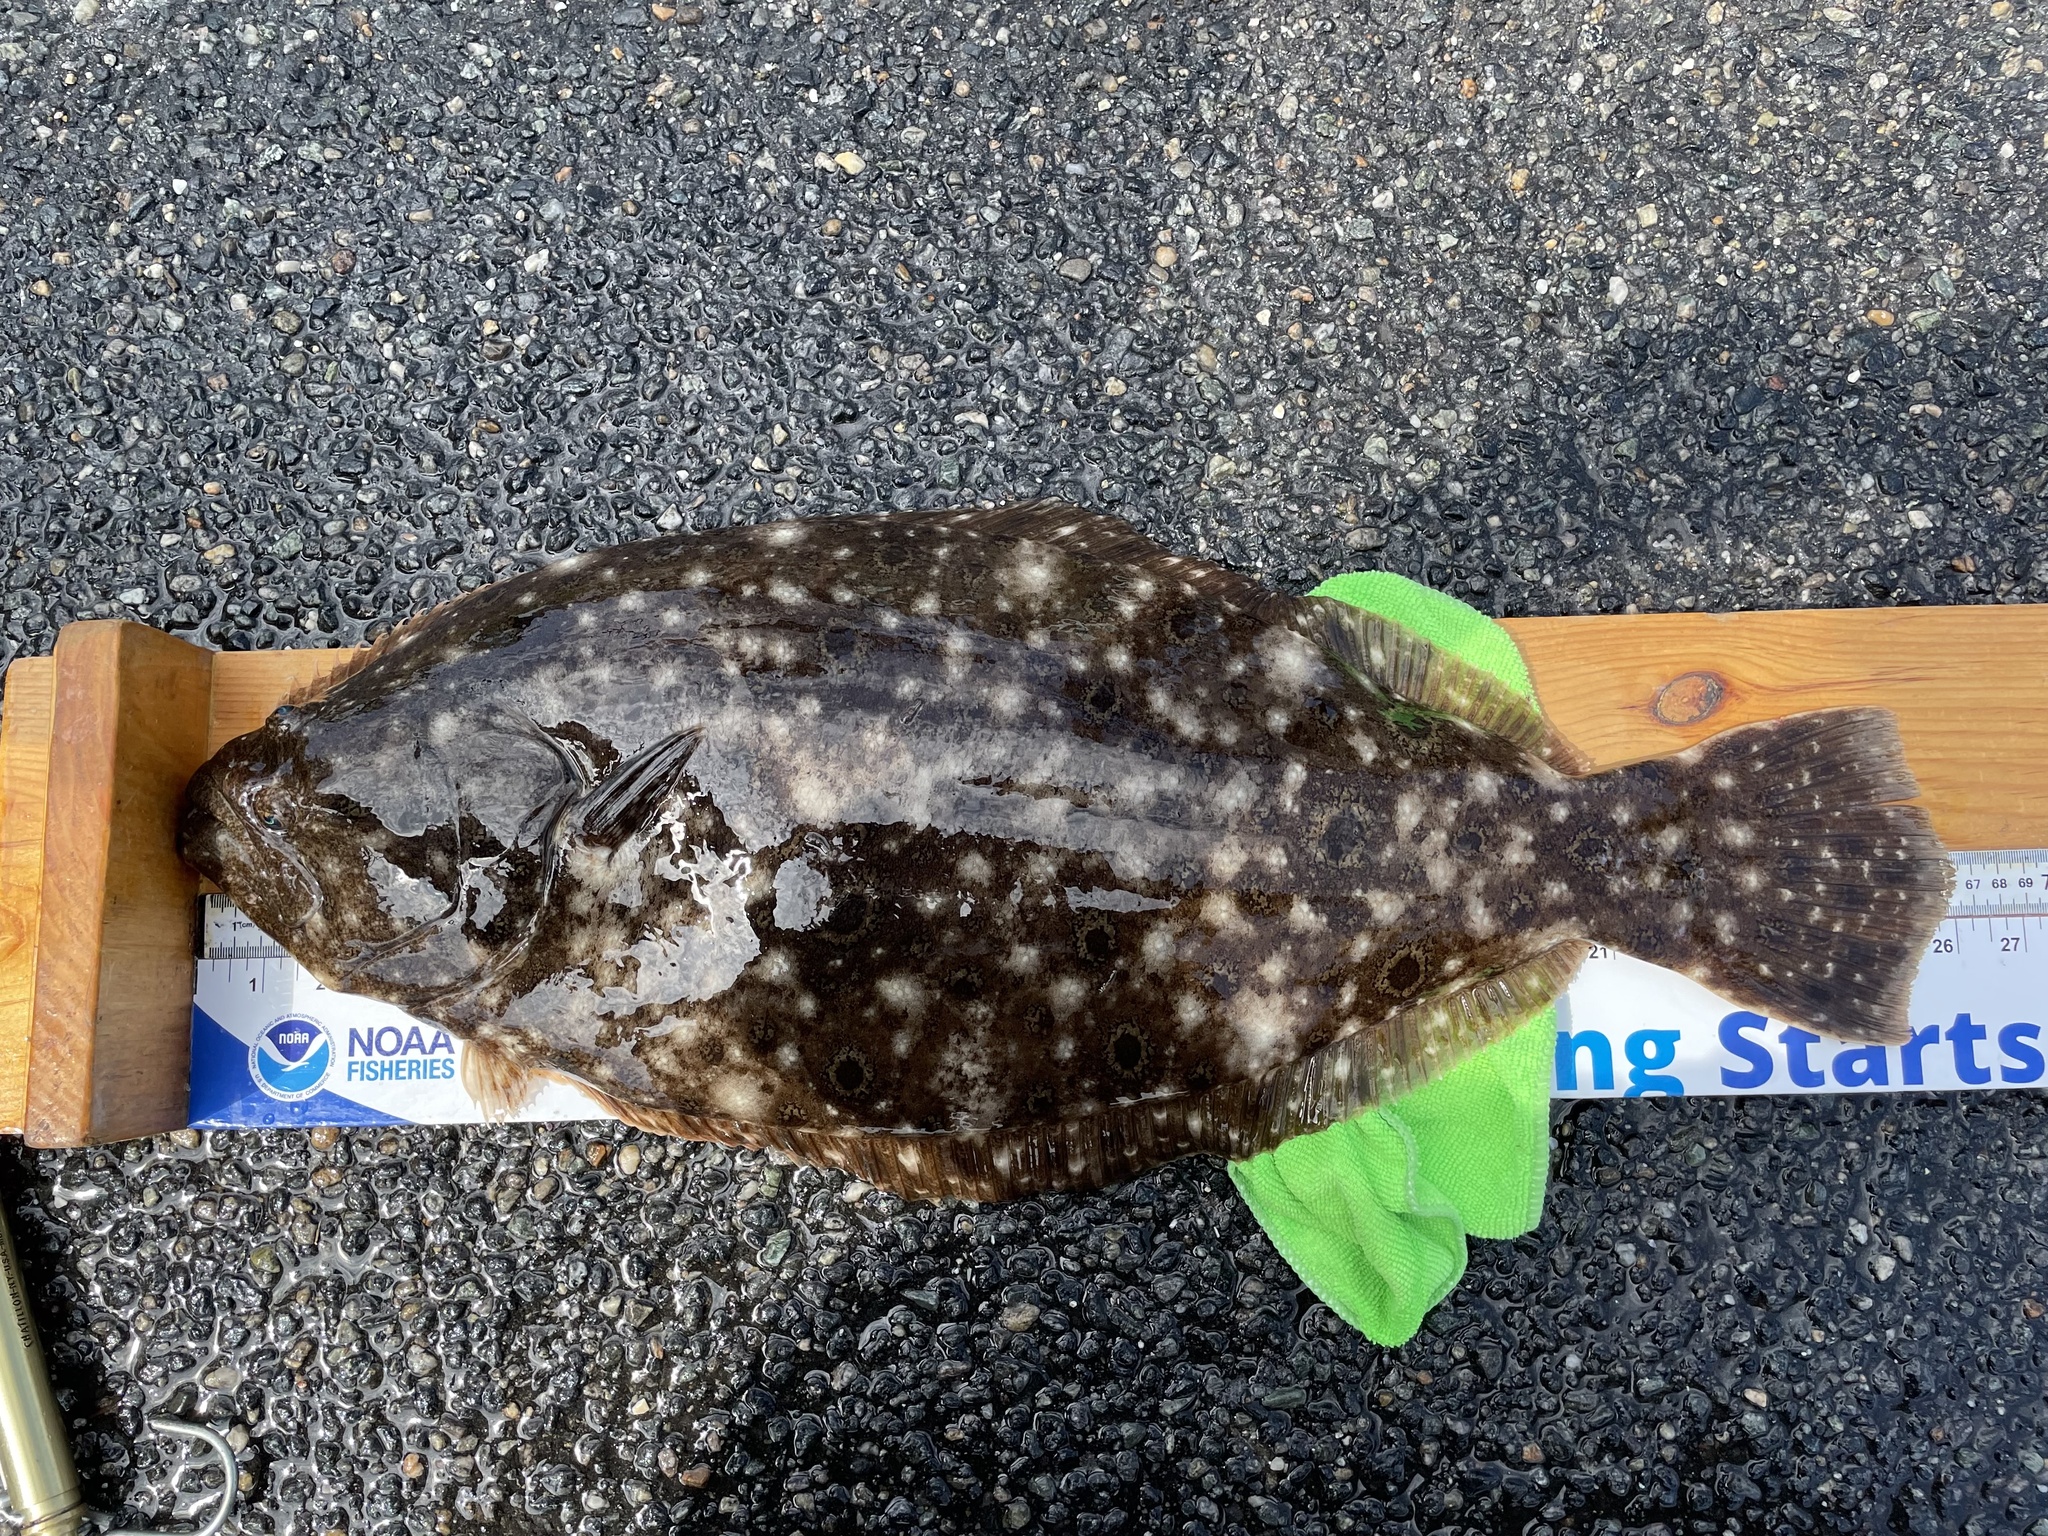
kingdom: Animalia
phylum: Chordata
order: Pleuronectiformes
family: Paralichthyidae
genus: Paralichthys
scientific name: Paralichthys dentatus
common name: Summer flounder
